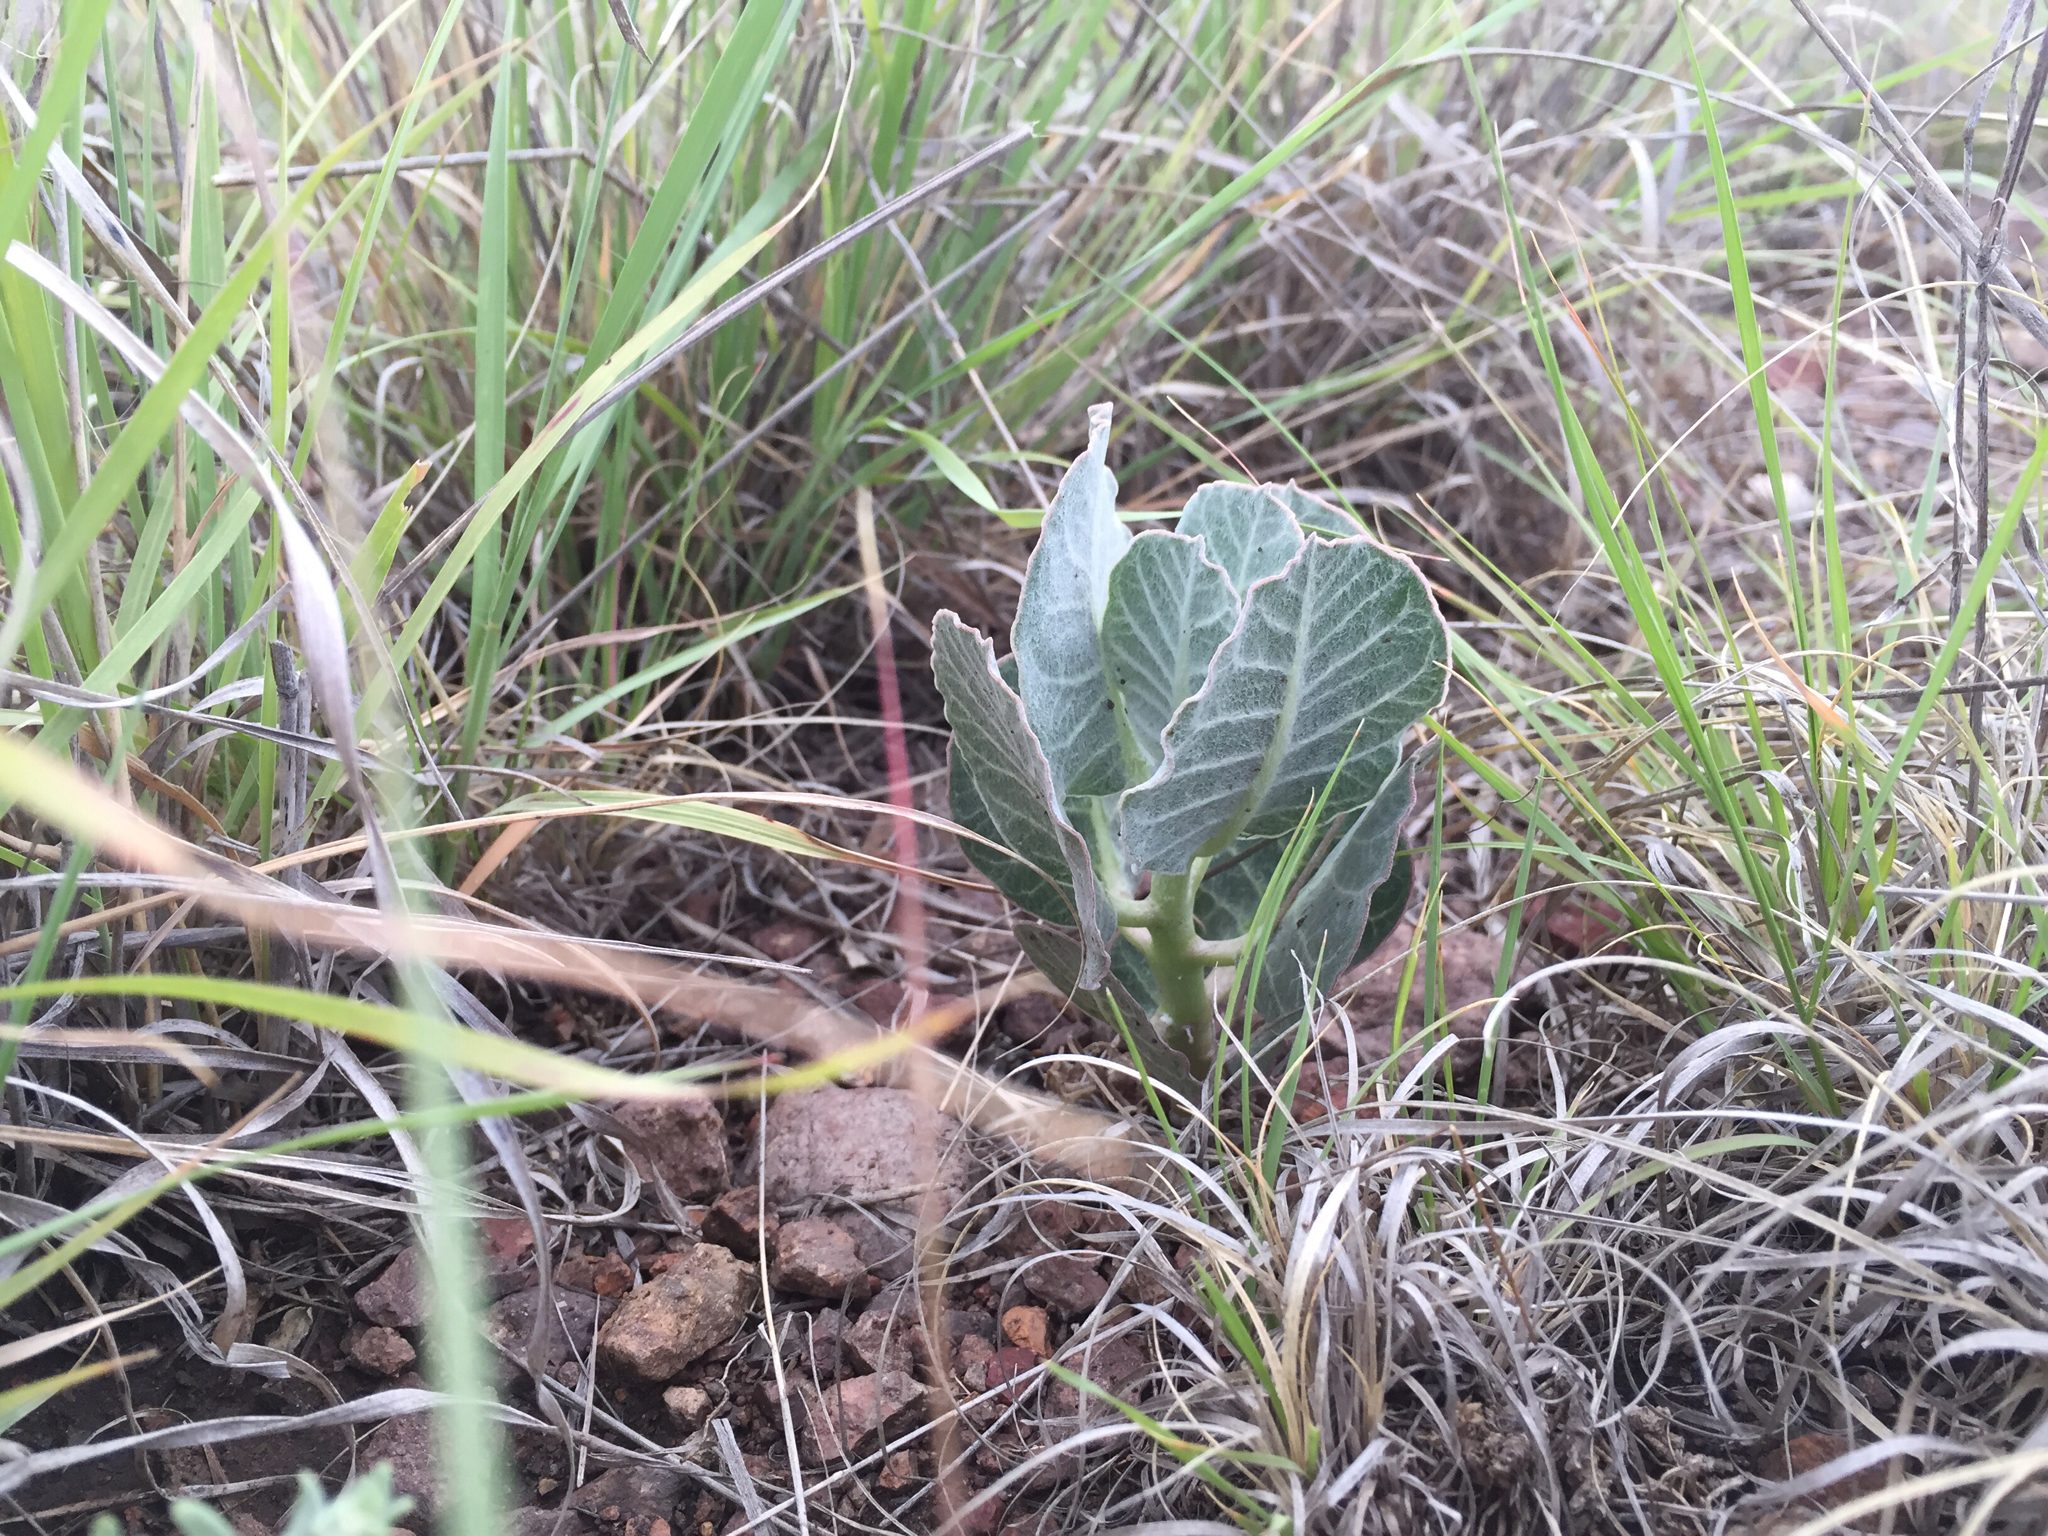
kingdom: Plantae
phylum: Tracheophyta
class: Magnoliopsida
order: Gentianales
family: Apocynaceae
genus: Asclepias
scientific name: Asclepias nummularia
